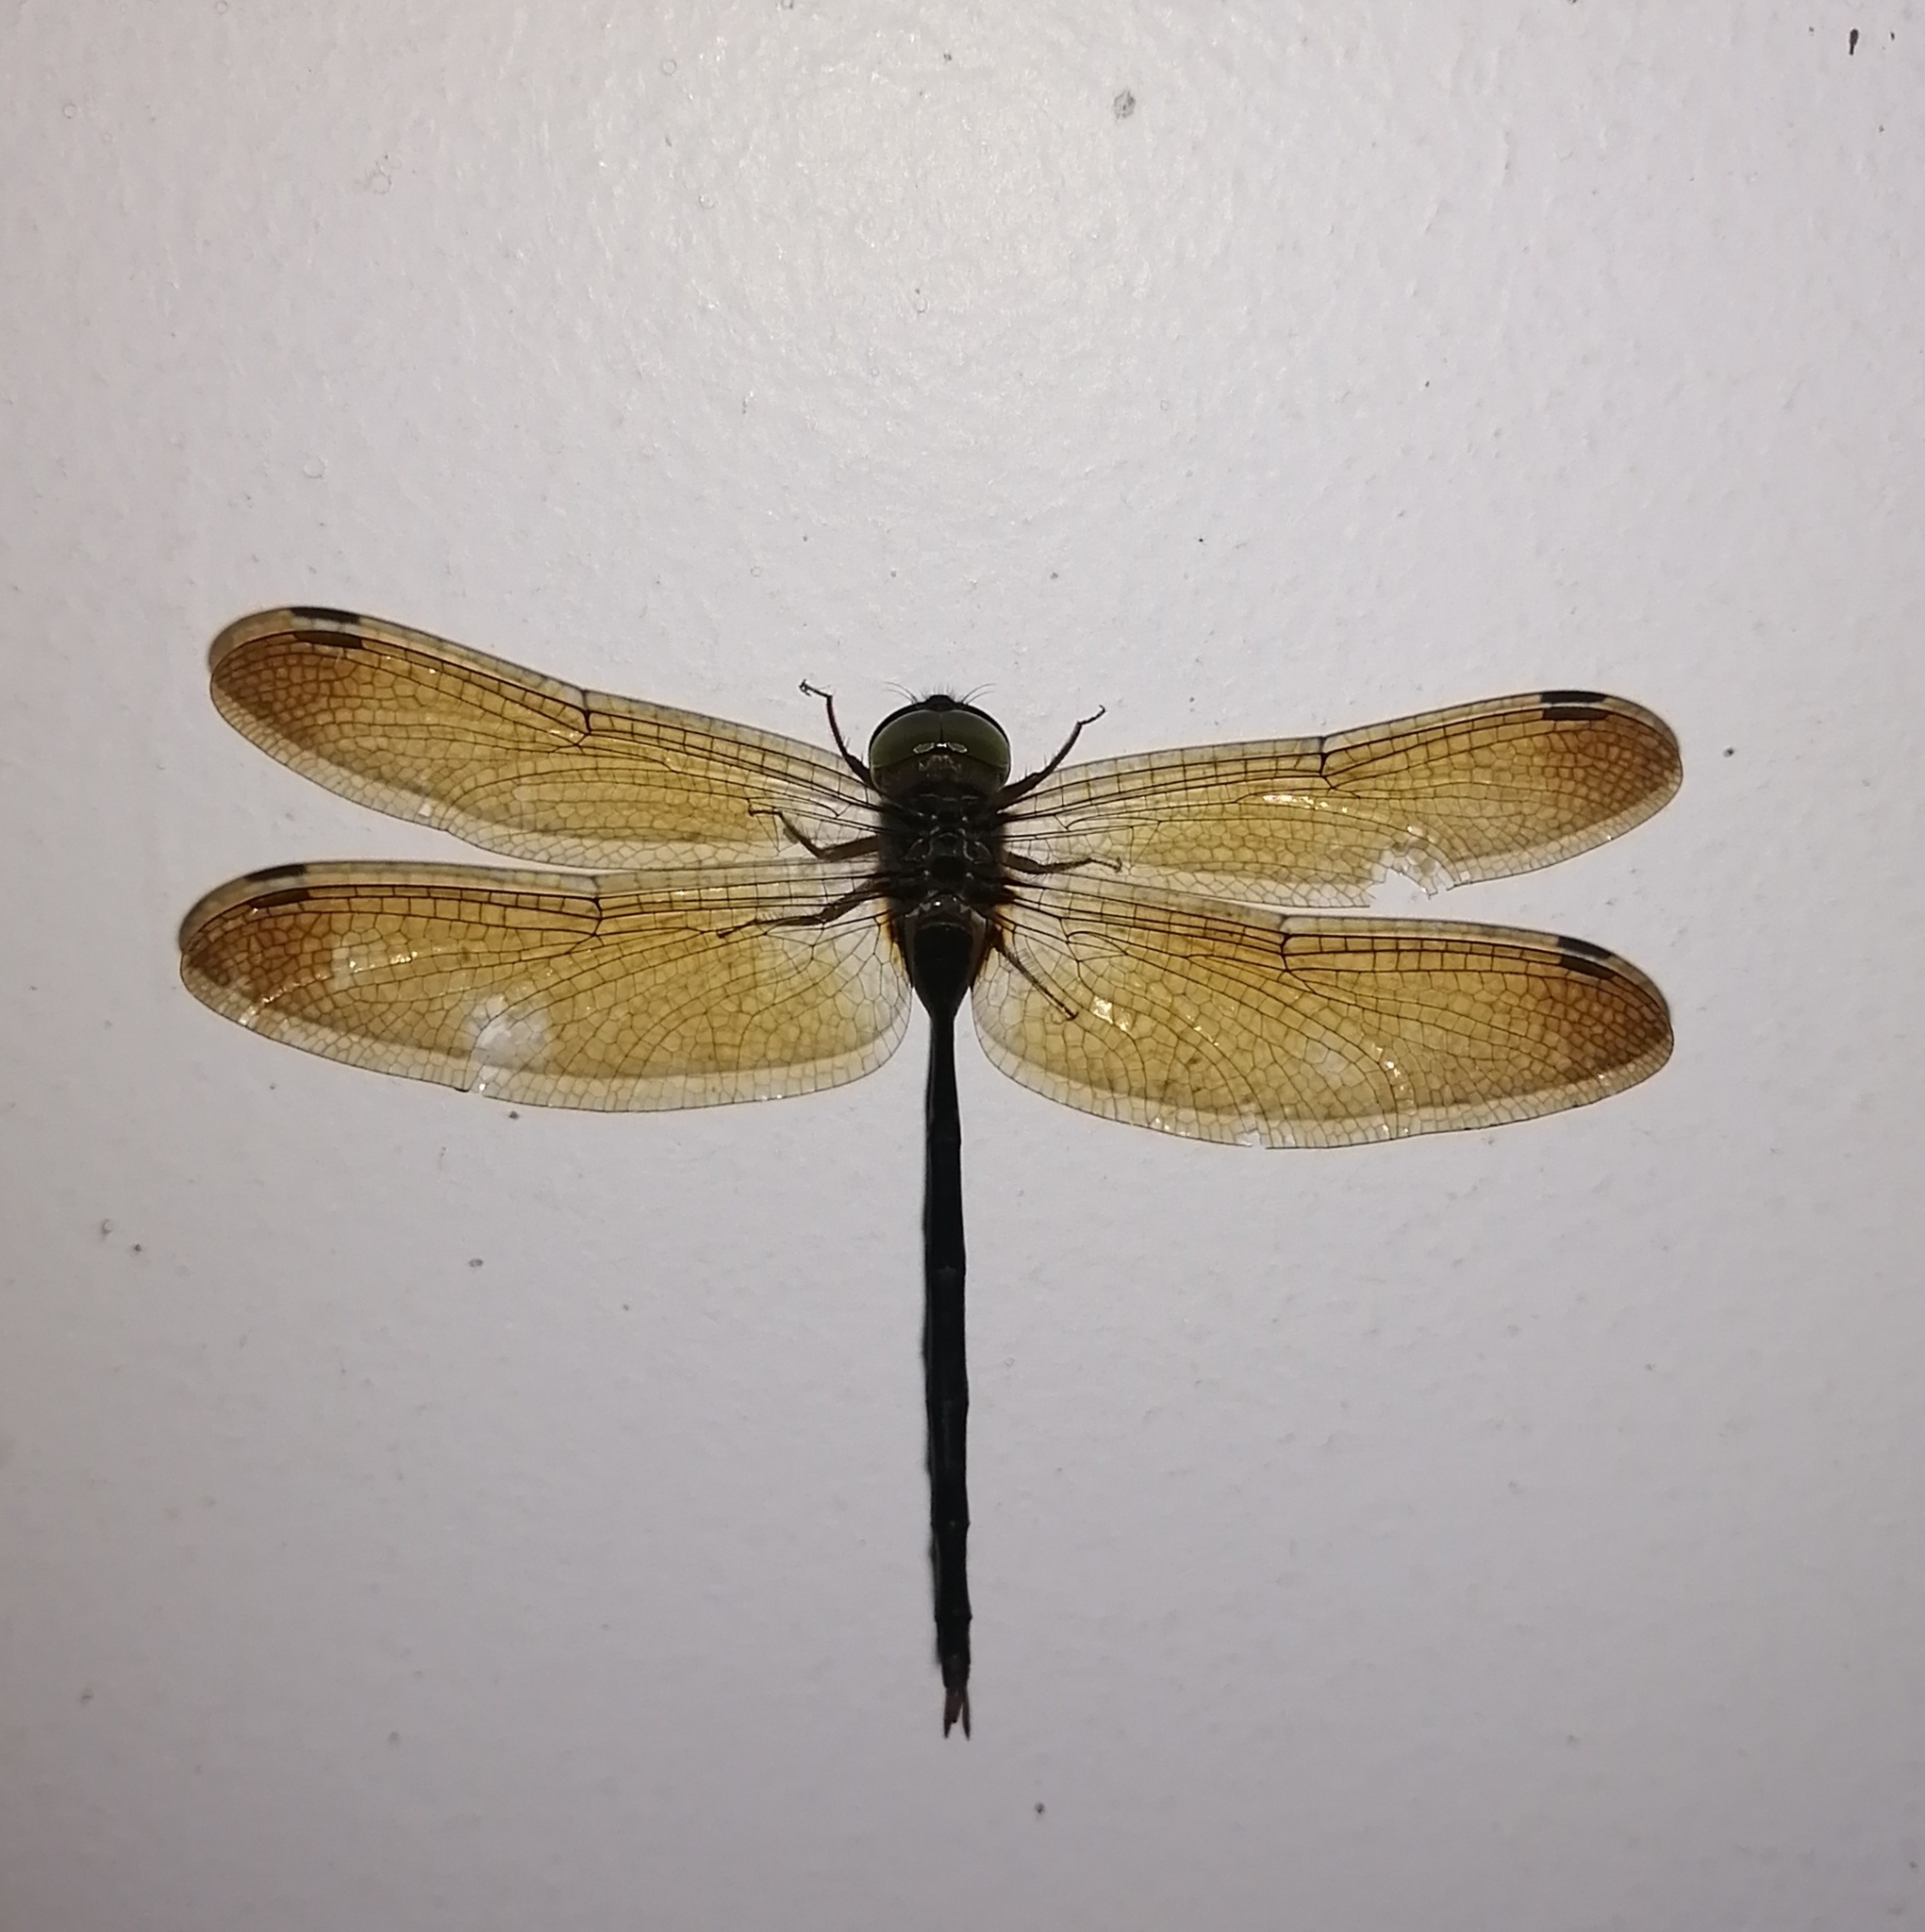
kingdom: Animalia
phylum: Arthropoda
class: Insecta
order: Odonata
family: Libellulidae
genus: Zyxomma
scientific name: Zyxomma petiolatum
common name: Dingy dusk-darter
